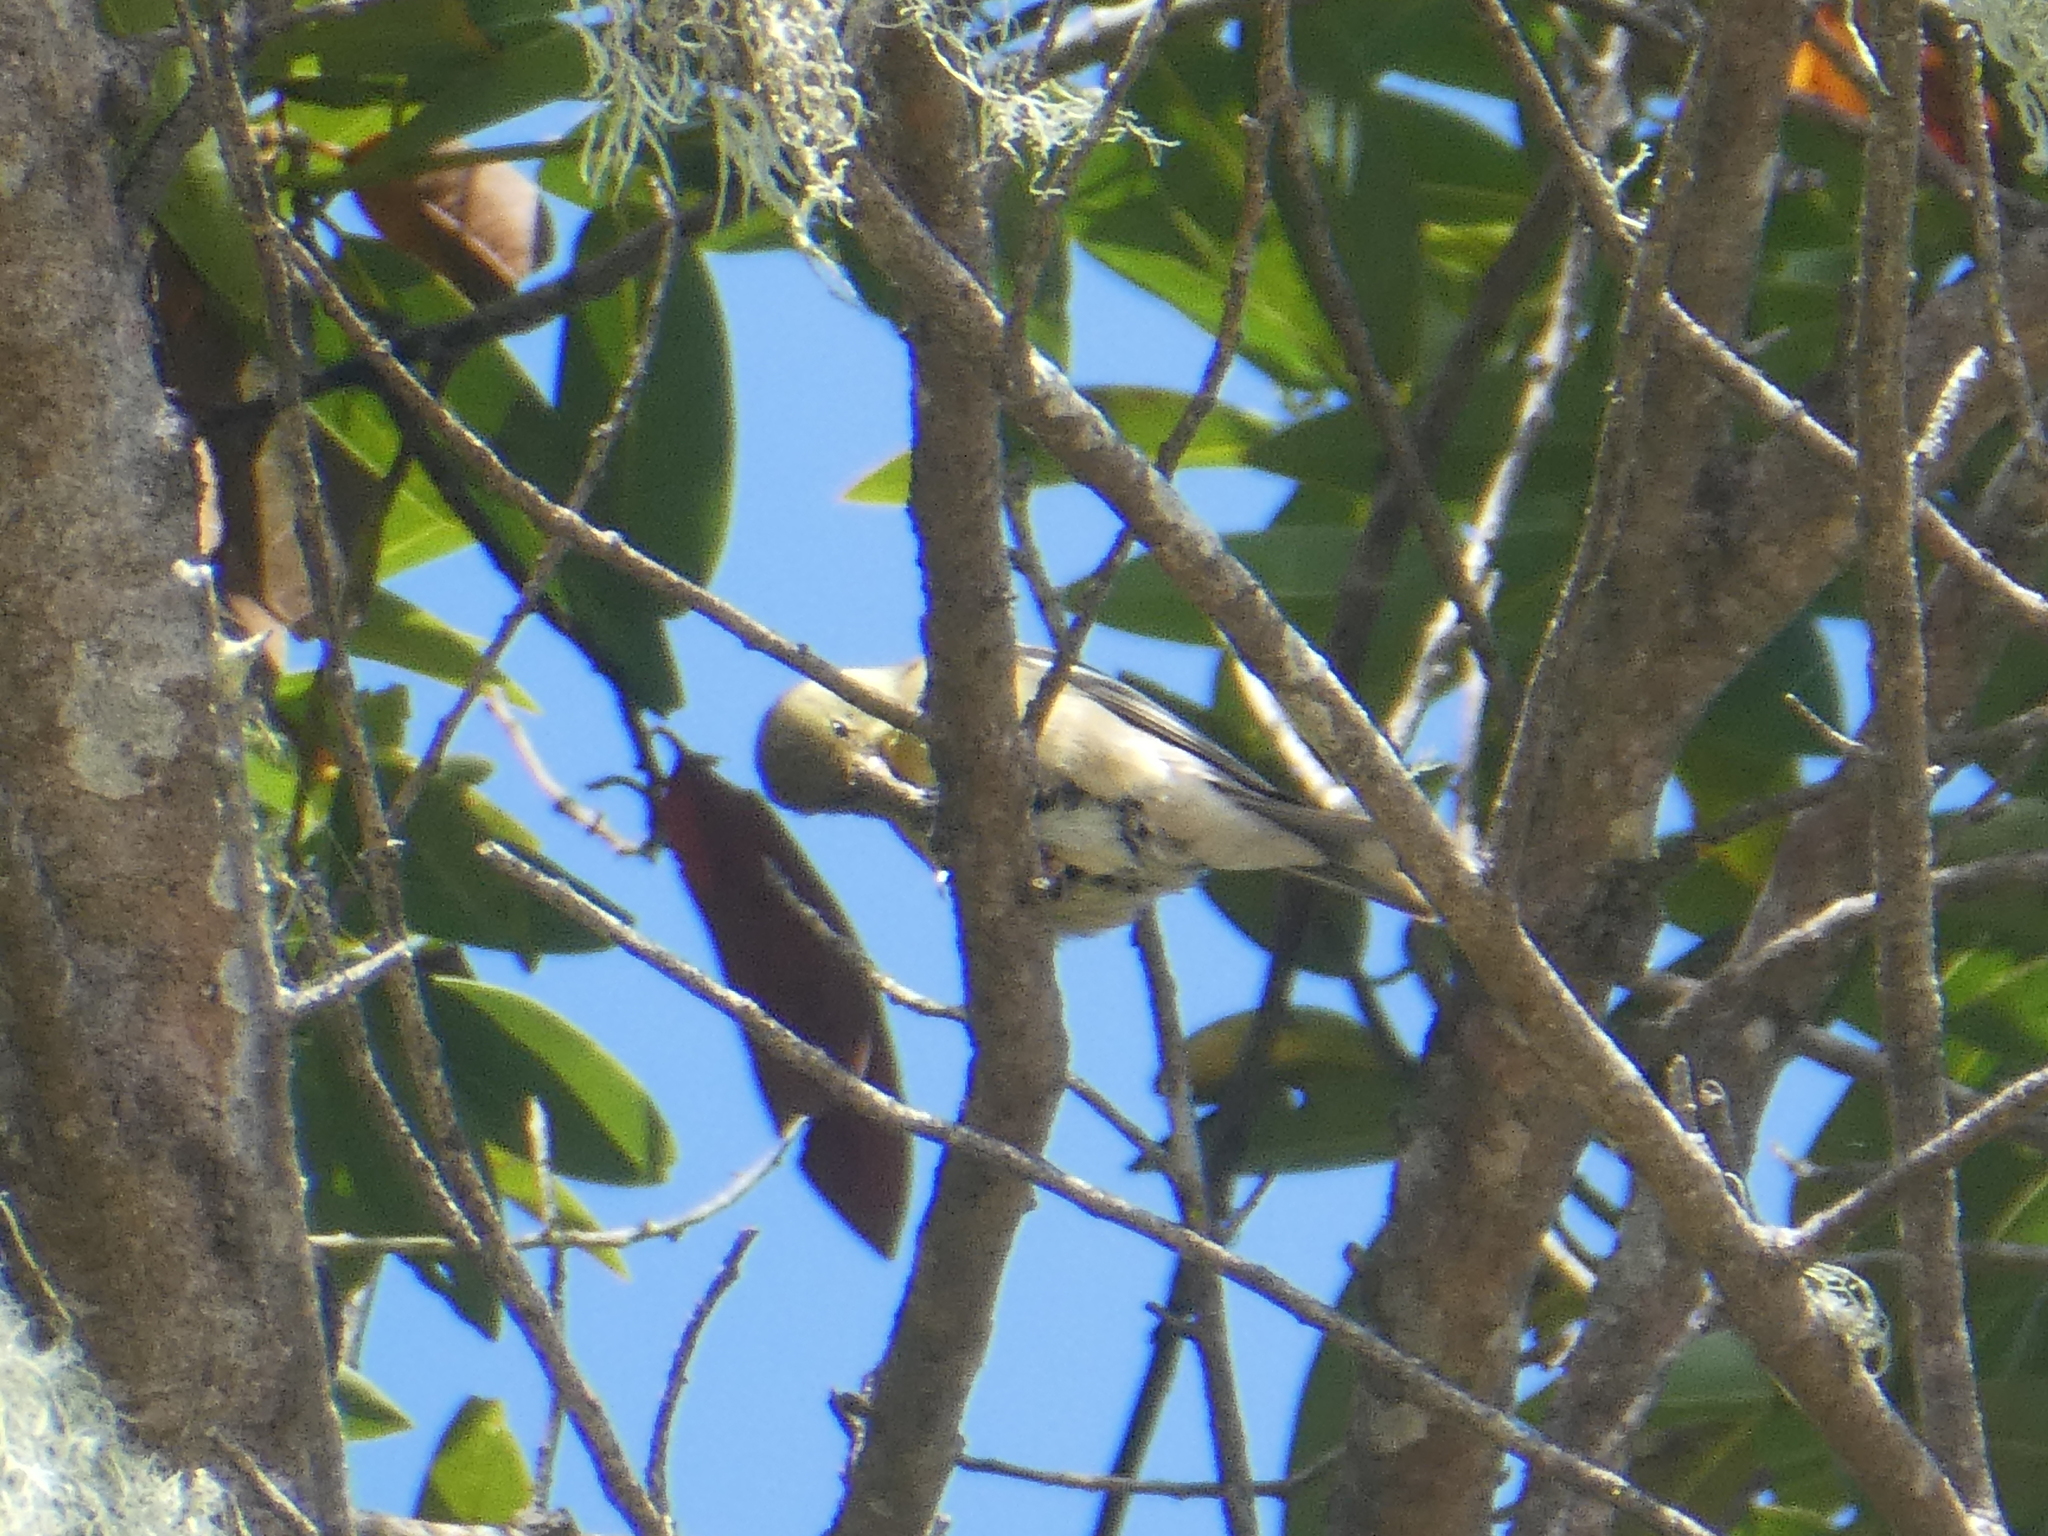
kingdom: Animalia
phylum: Chordata
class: Aves
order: Passeriformes
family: Fringillidae
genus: Spinus
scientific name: Spinus tristis
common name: American goldfinch
